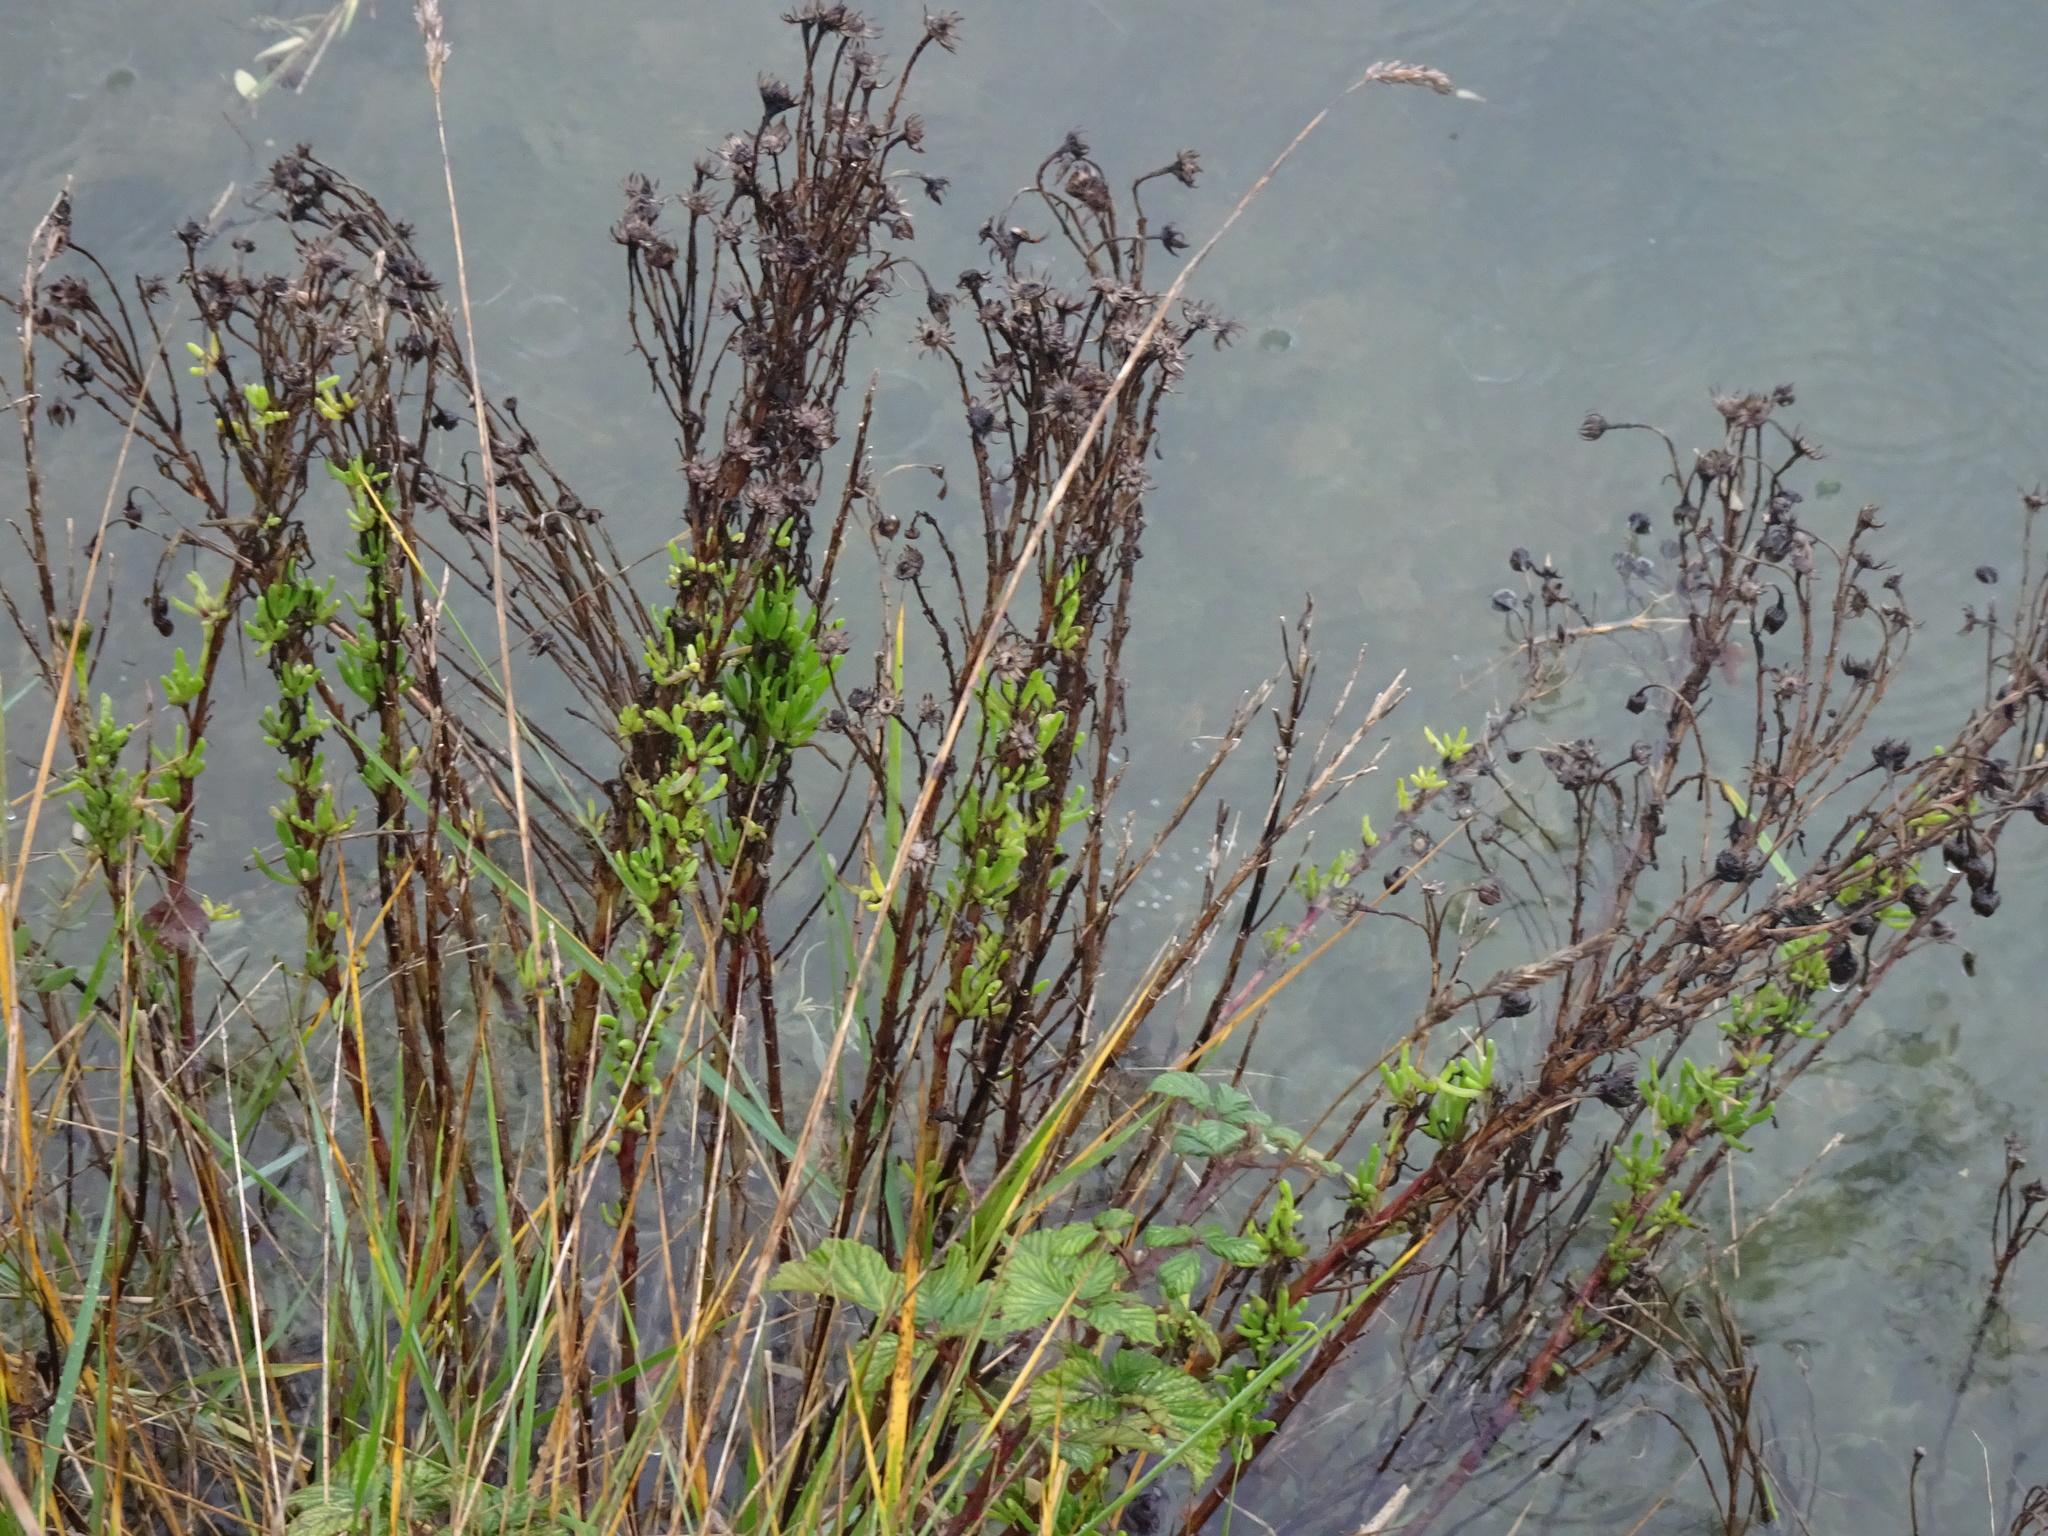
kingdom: Plantae
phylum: Tracheophyta
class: Magnoliopsida
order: Asterales
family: Asteraceae
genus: Limbarda
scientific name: Limbarda crithmoides
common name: Golden samphire
